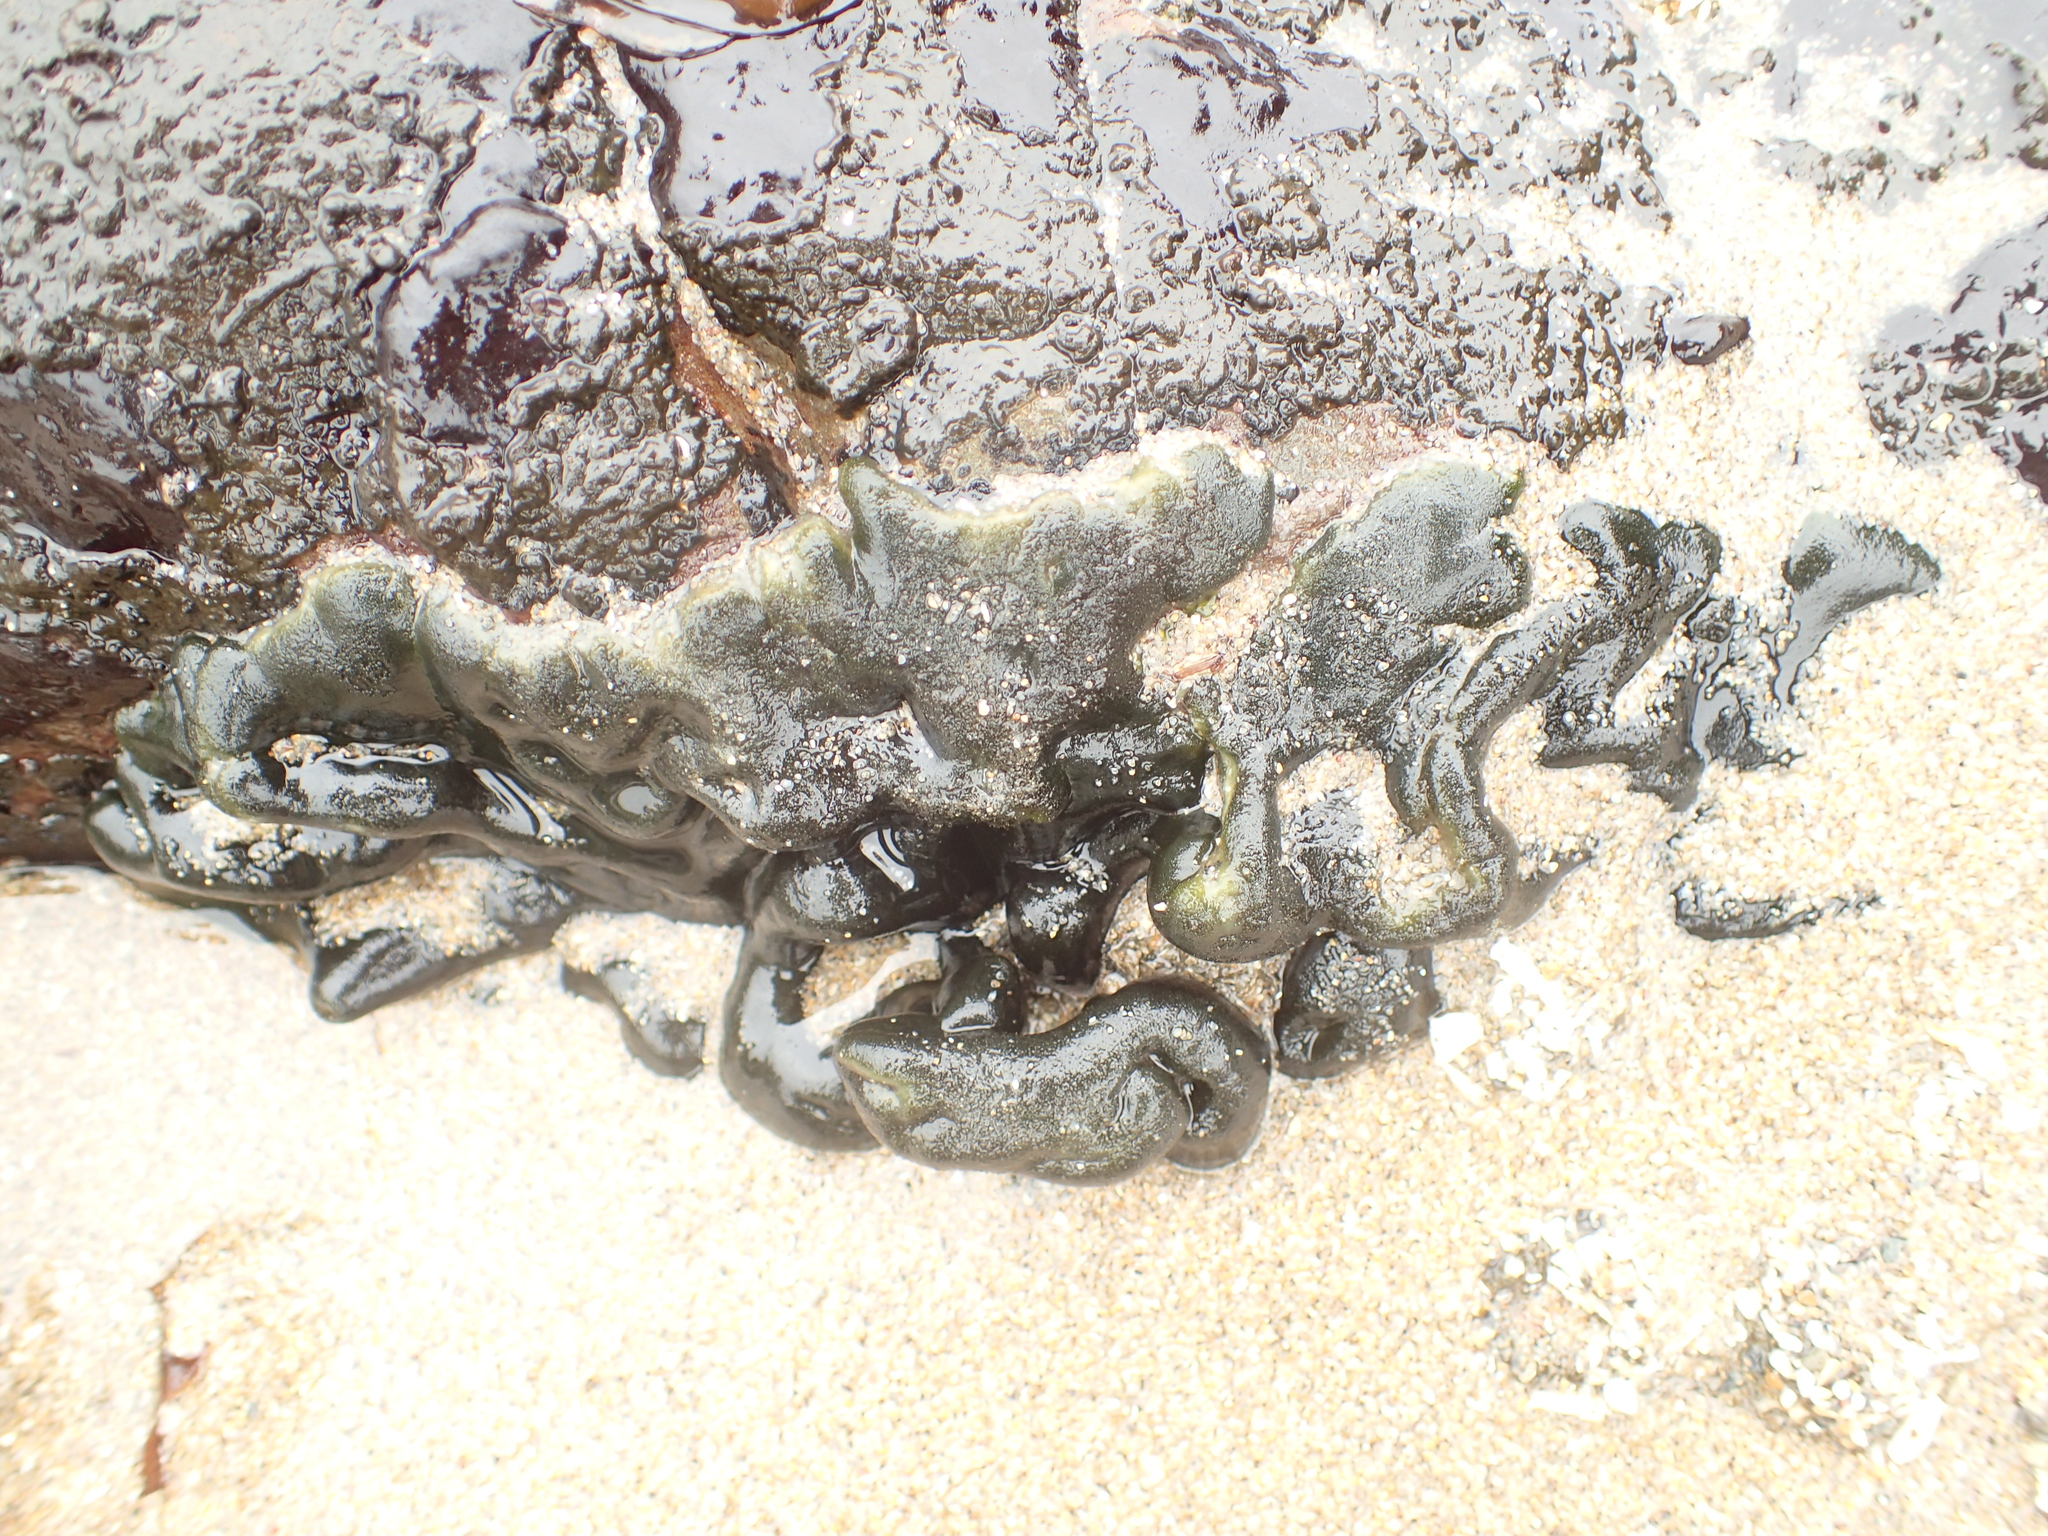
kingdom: Plantae
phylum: Chlorophyta
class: Ulvophyceae
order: Bryopsidales
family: Codiaceae
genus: Codium
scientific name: Codium setchellii
